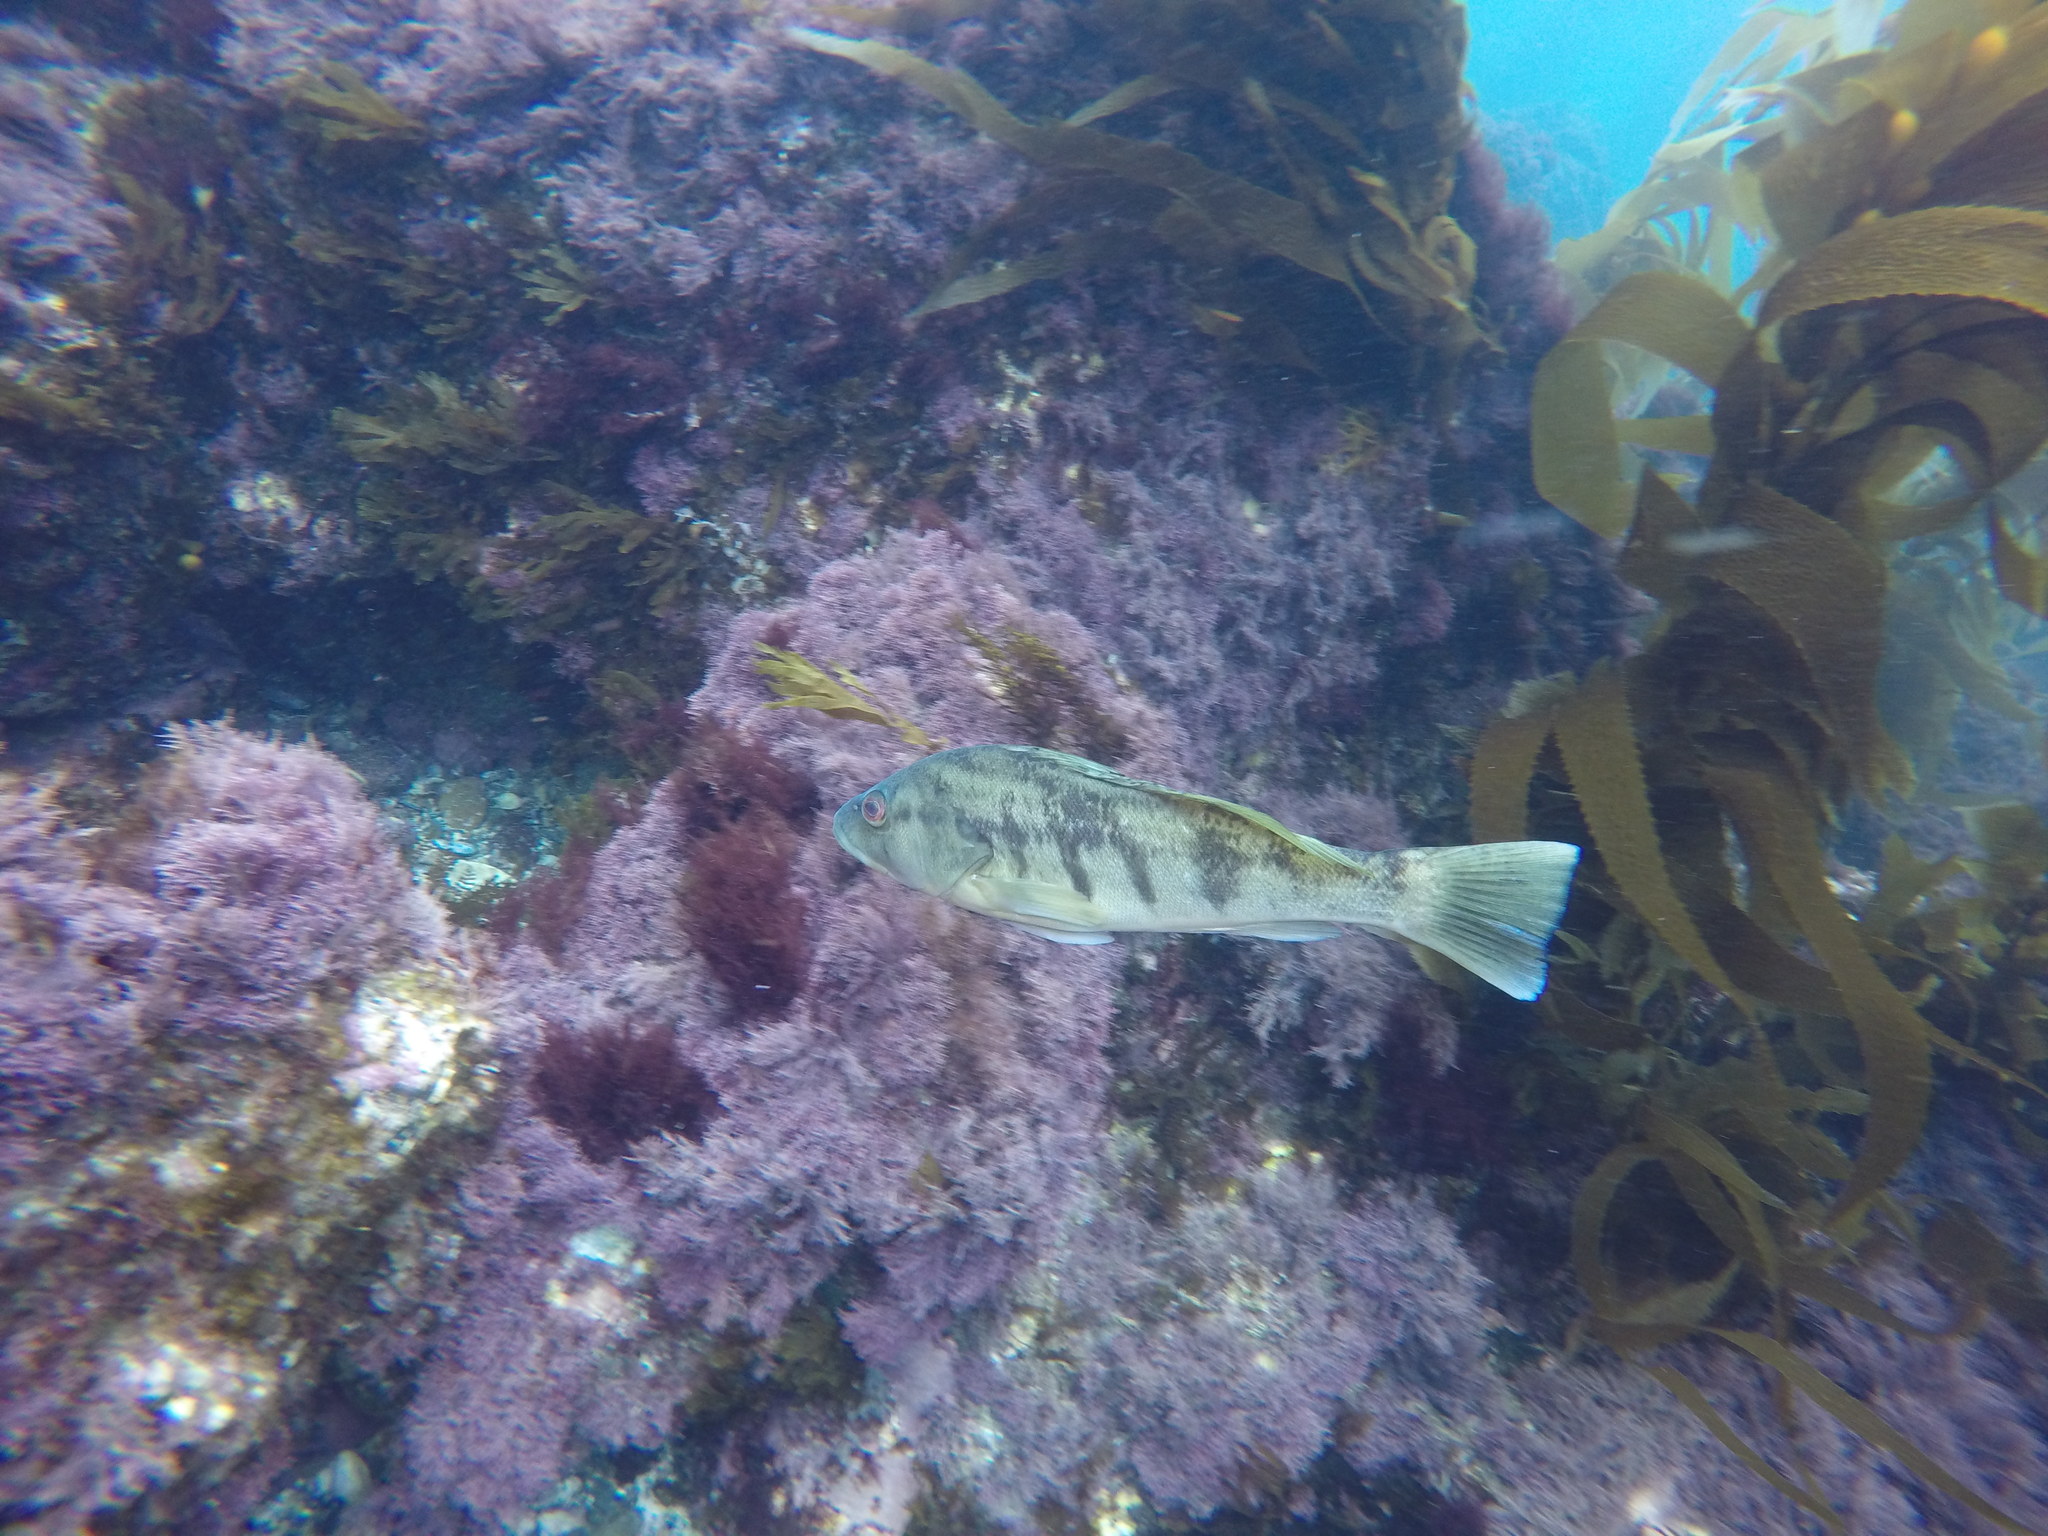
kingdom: Animalia
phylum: Chordata
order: Perciformes
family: Serranidae
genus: Paralabrax
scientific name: Paralabrax nebulifer
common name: Barred sand bass
